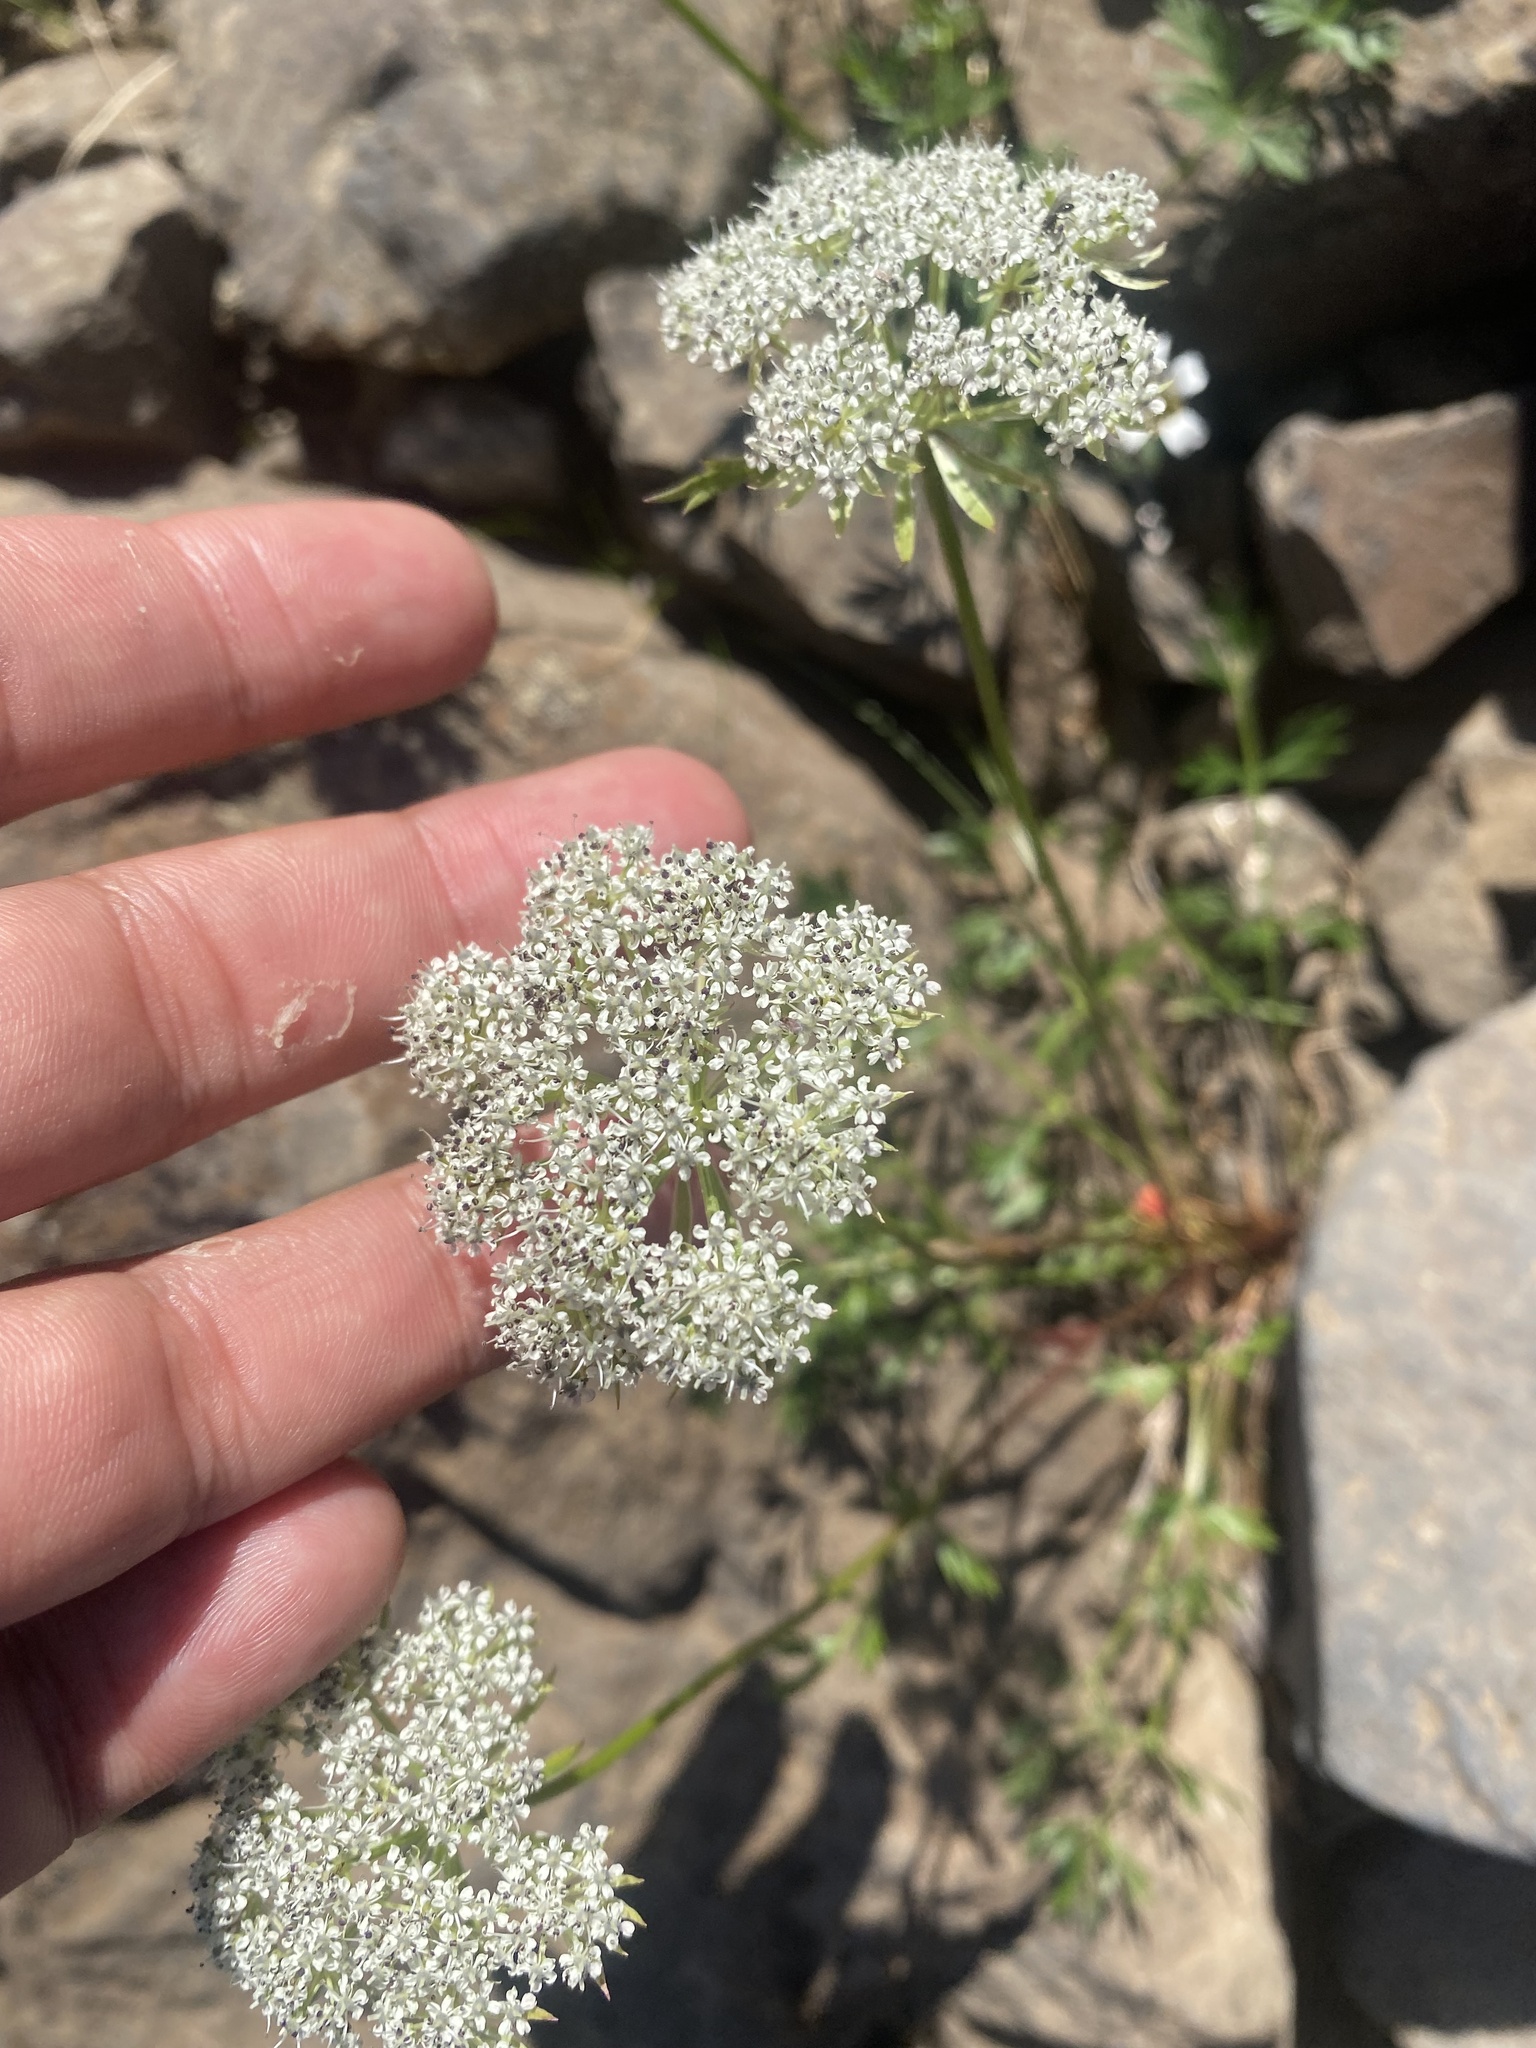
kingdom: Plantae
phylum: Tracheophyta
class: Magnoliopsida
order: Apiales
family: Apiaceae
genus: Pachypleurum
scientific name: Pachypleurum mutellinoides
